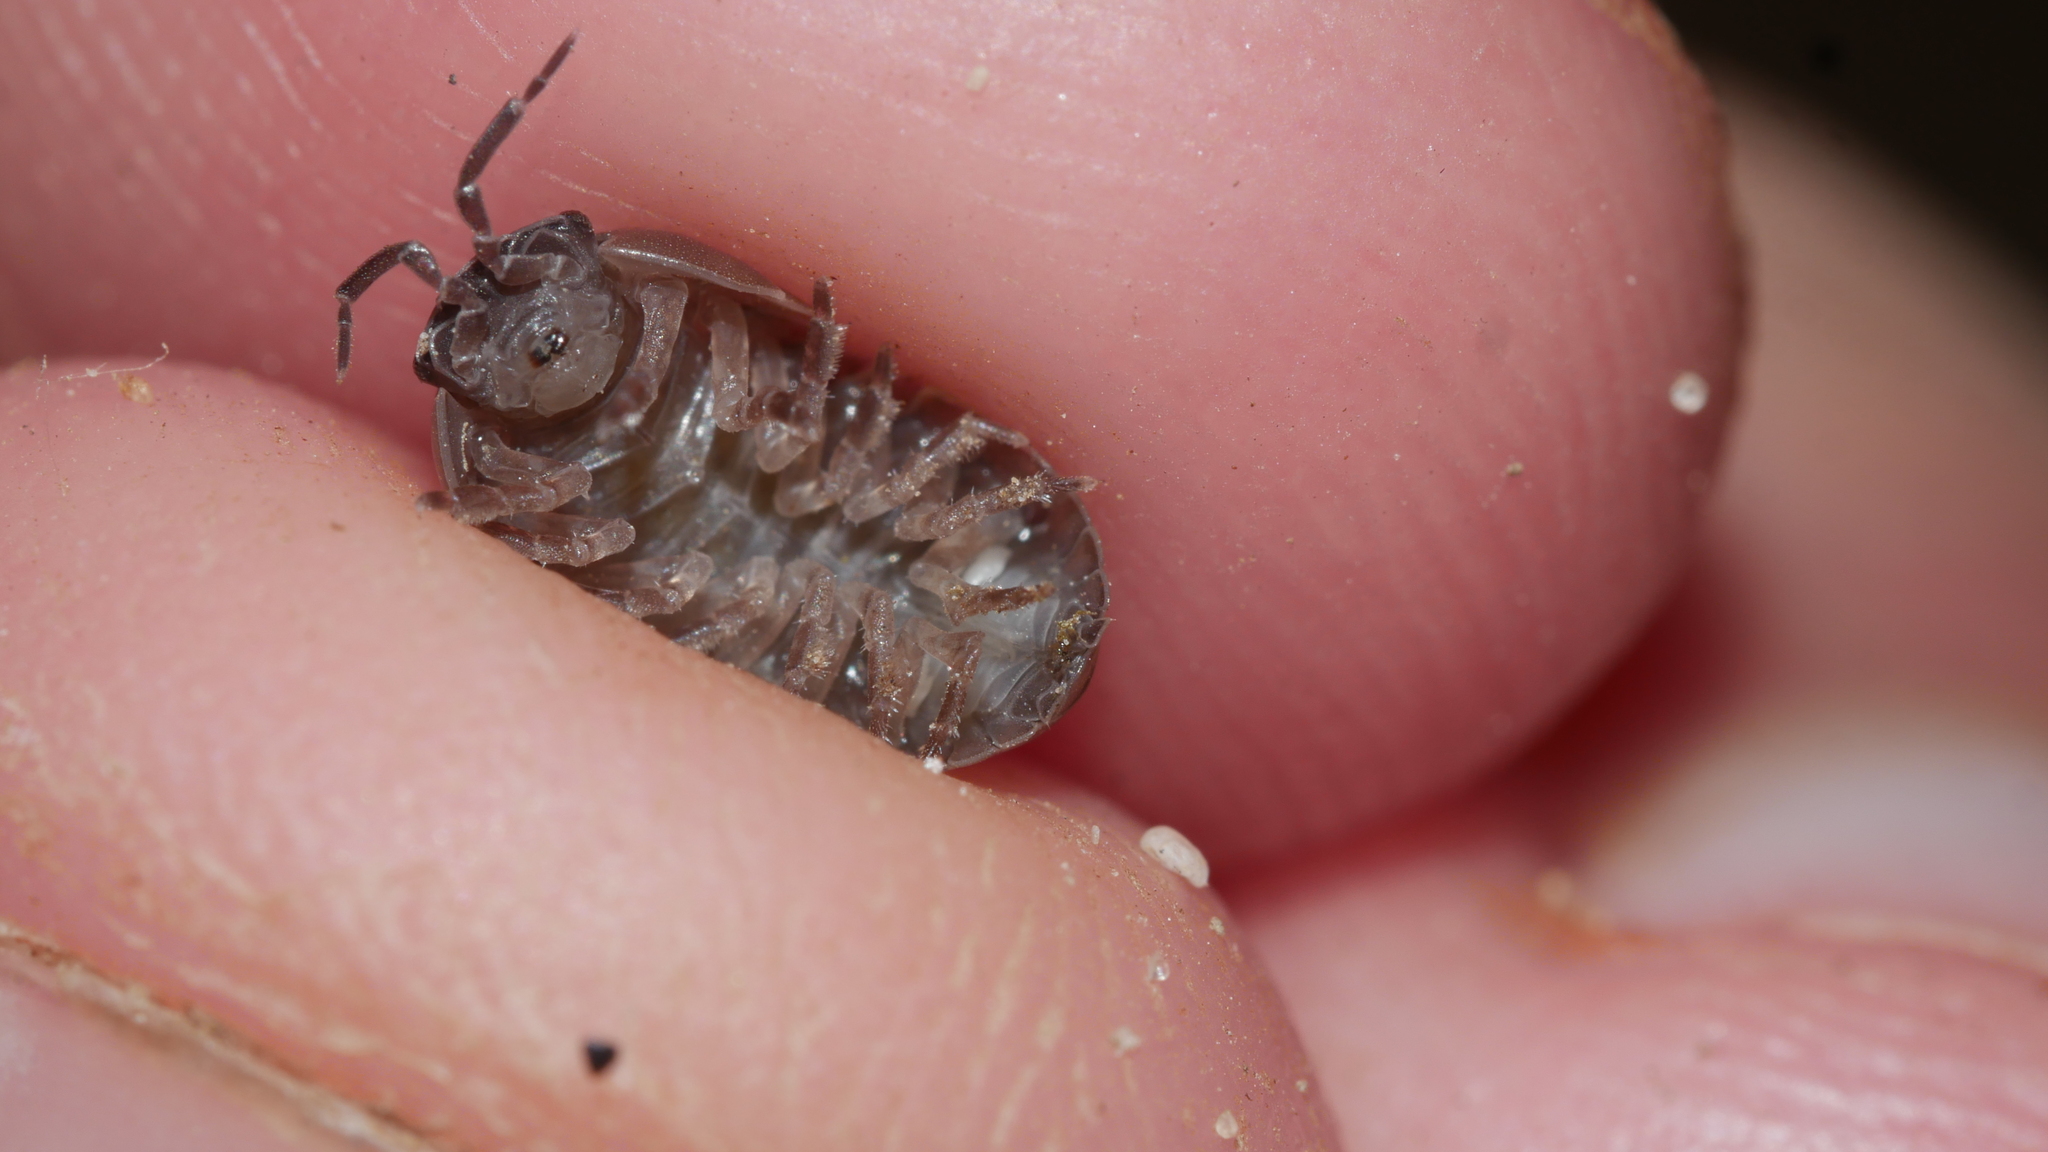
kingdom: Animalia
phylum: Arthropoda
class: Malacostraca
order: Isopoda
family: Armadillidiidae
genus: Armadillidium
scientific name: Armadillidium vulgare
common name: Common pill woodlouse
